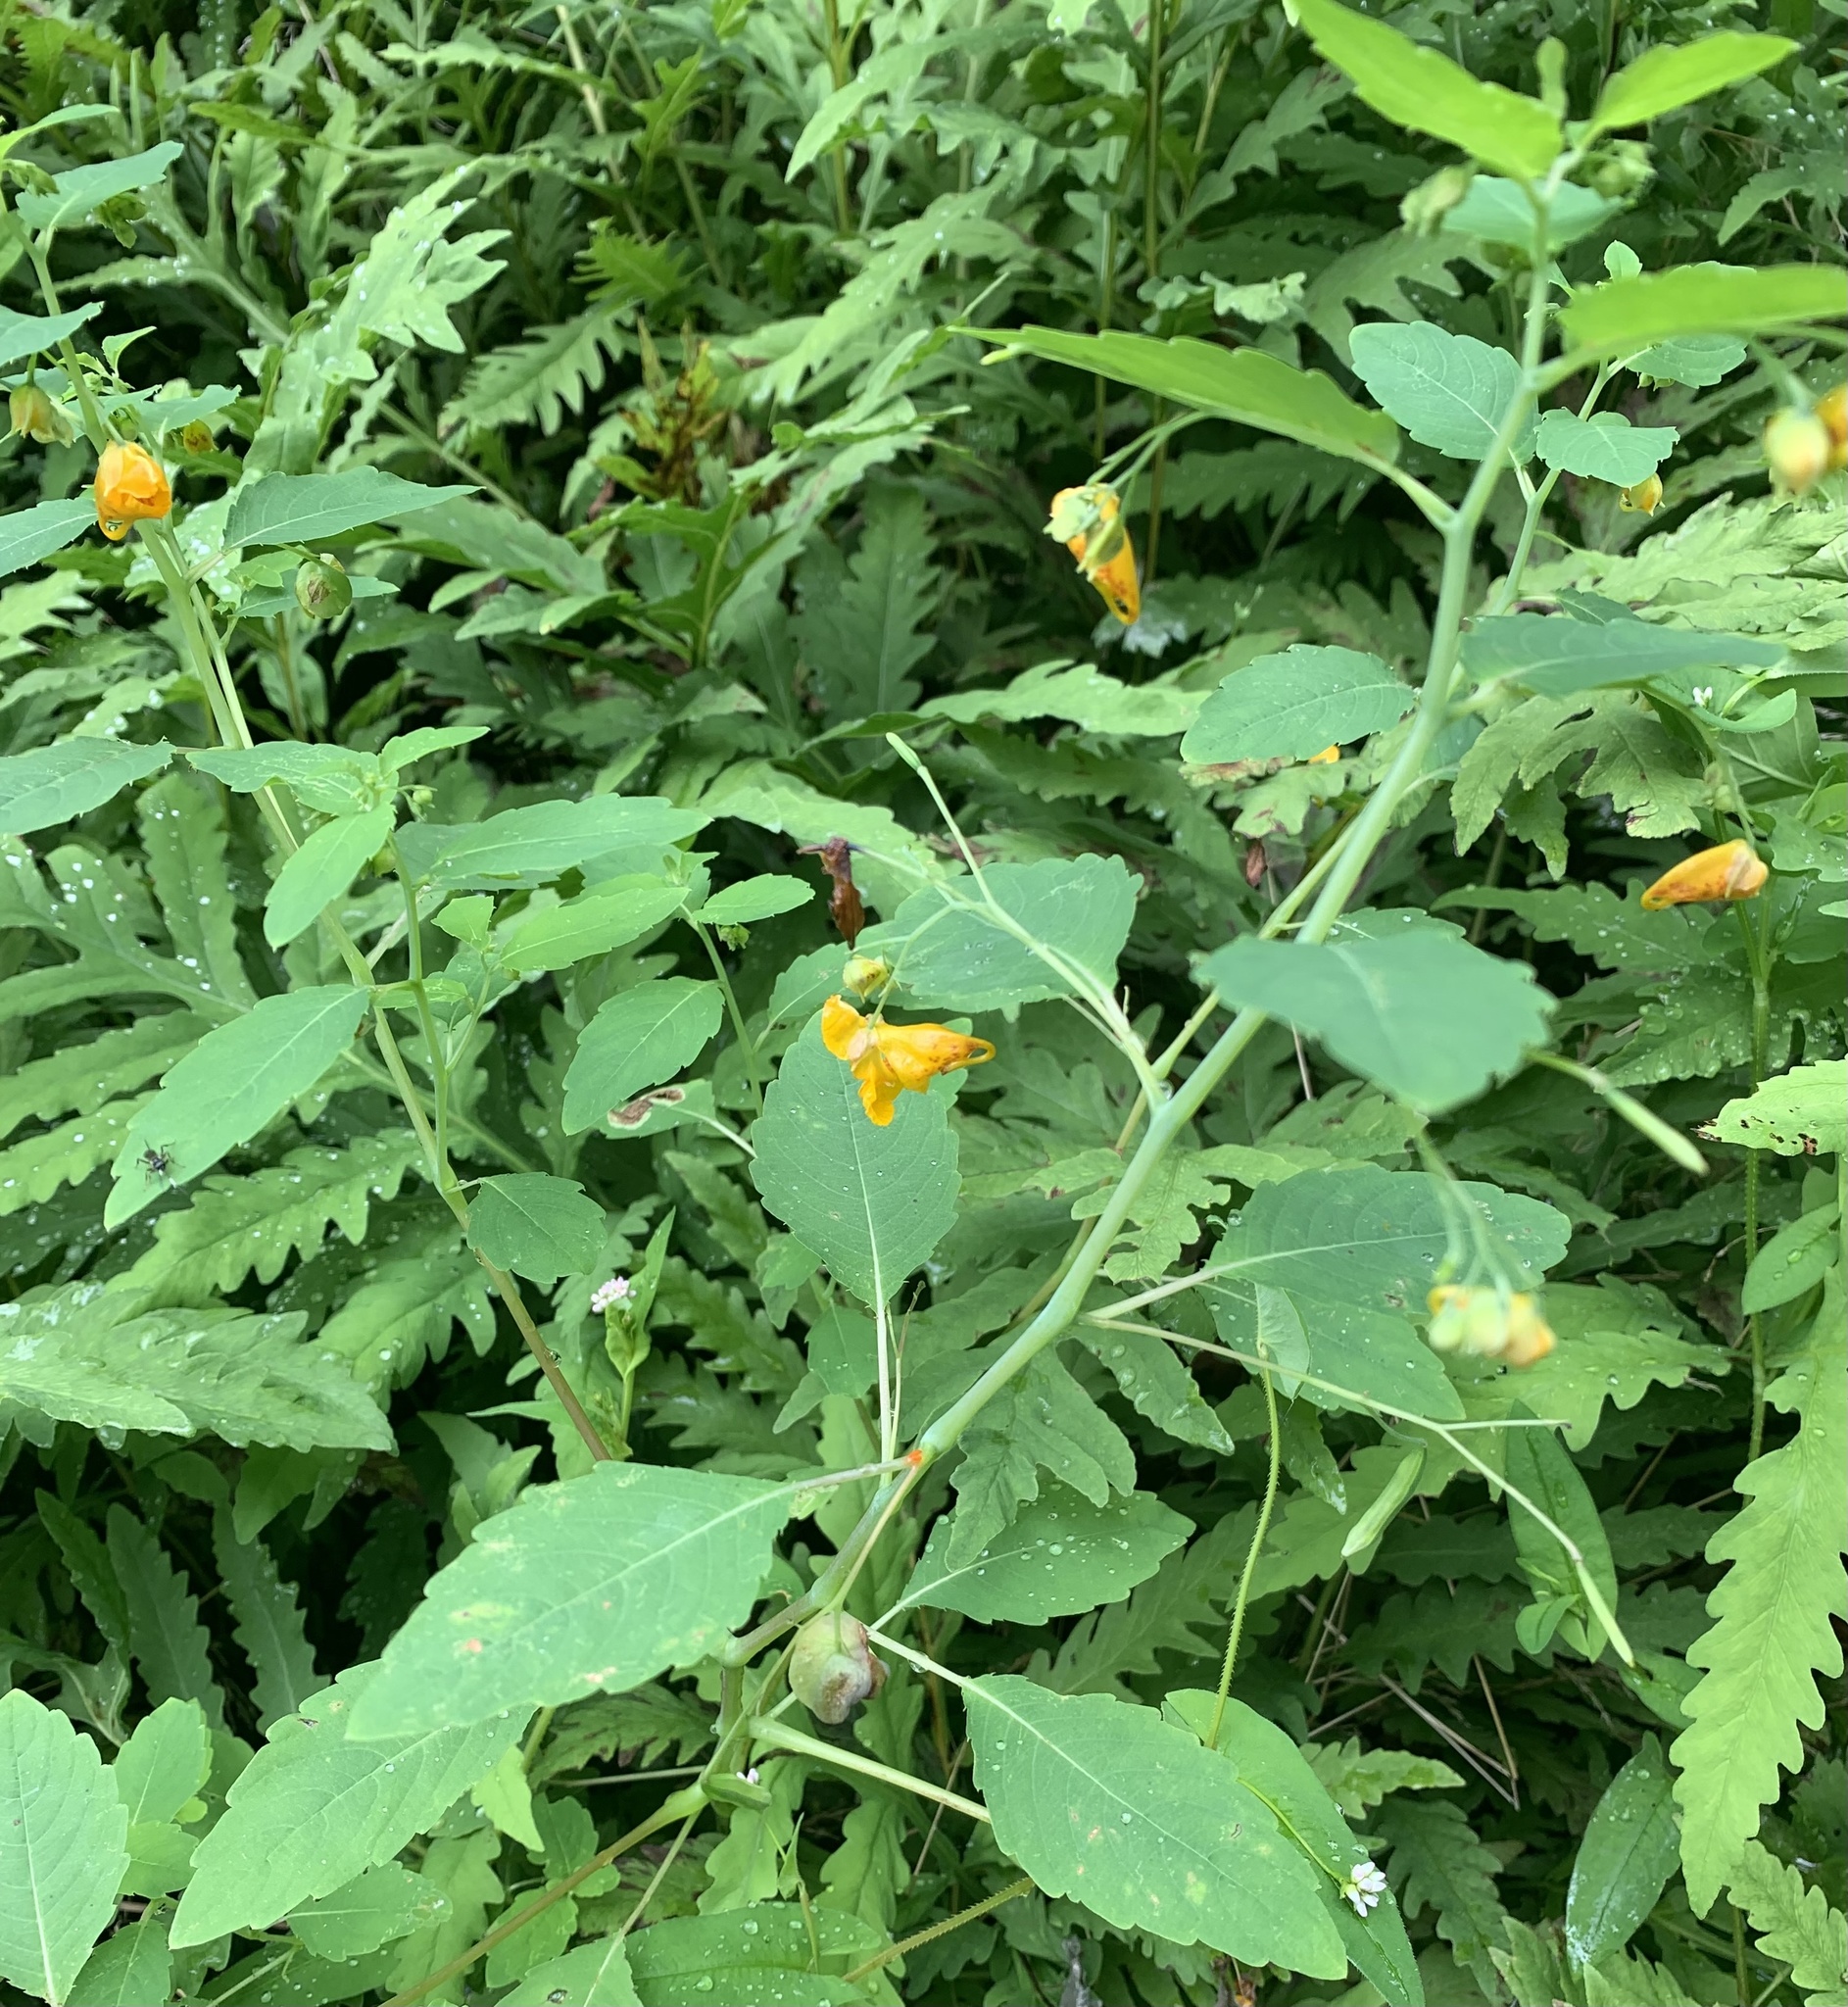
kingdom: Plantae
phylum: Tracheophyta
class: Magnoliopsida
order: Ericales
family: Balsaminaceae
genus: Impatiens
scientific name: Impatiens capensis
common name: Orange balsam
